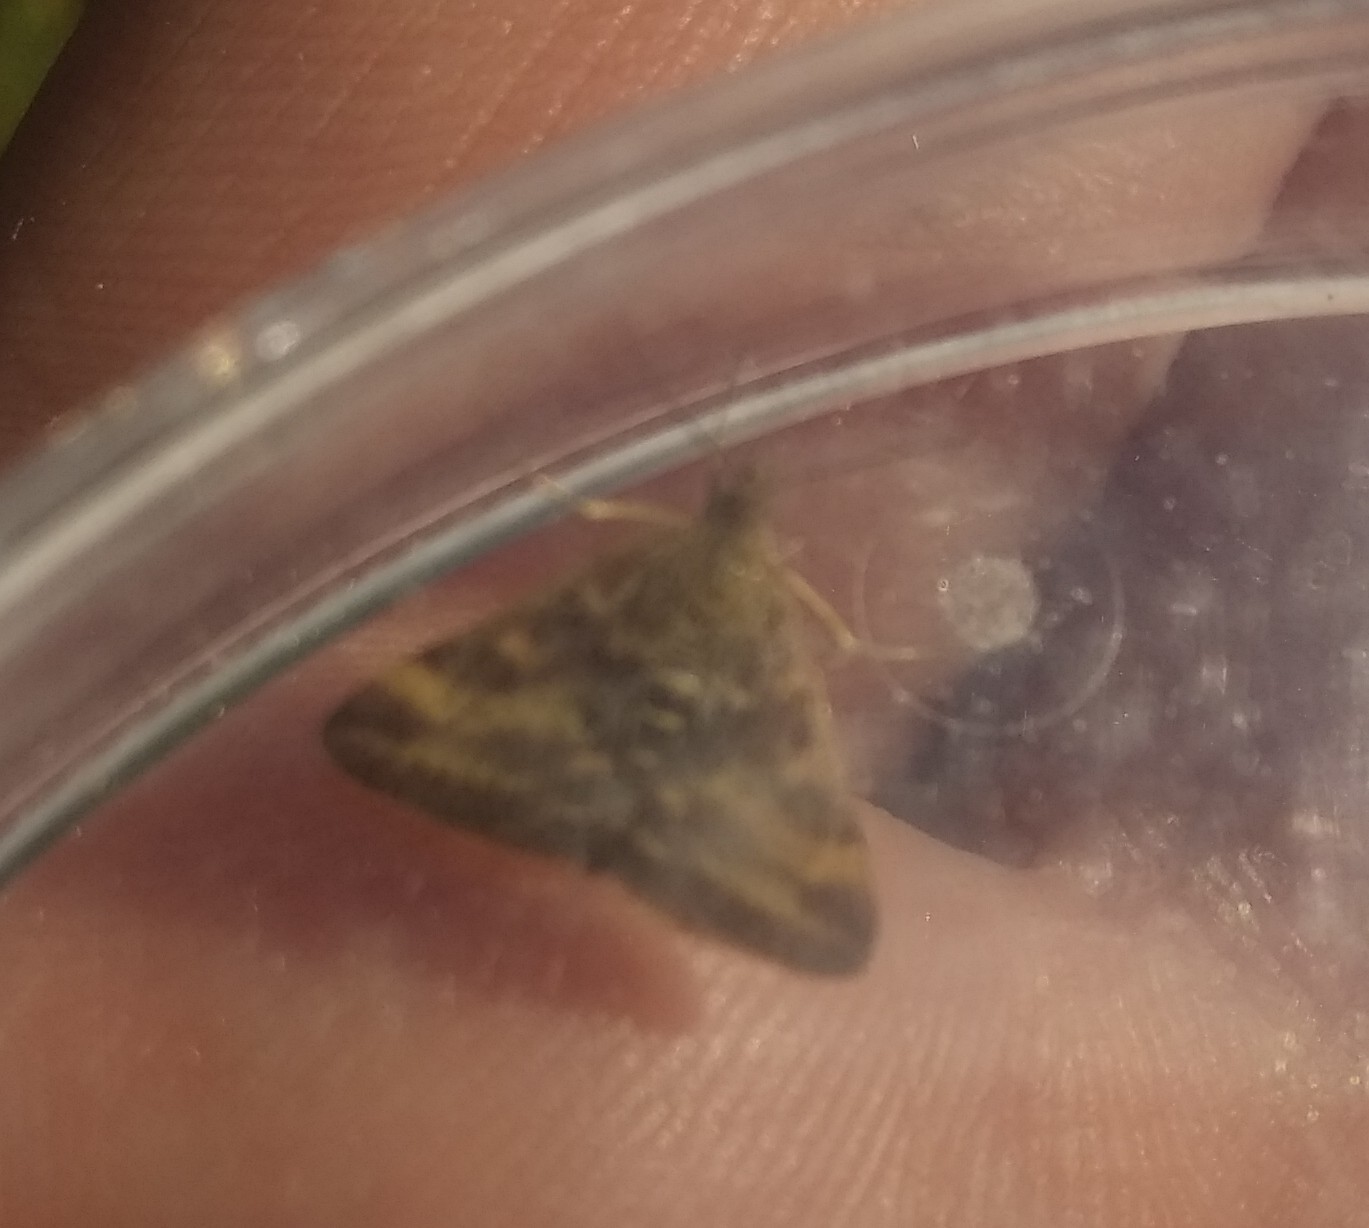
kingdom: Animalia
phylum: Arthropoda
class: Insecta
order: Lepidoptera
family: Crambidae
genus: Pyrausta
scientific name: Pyrausta despicata
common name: Straw-barred pearl
